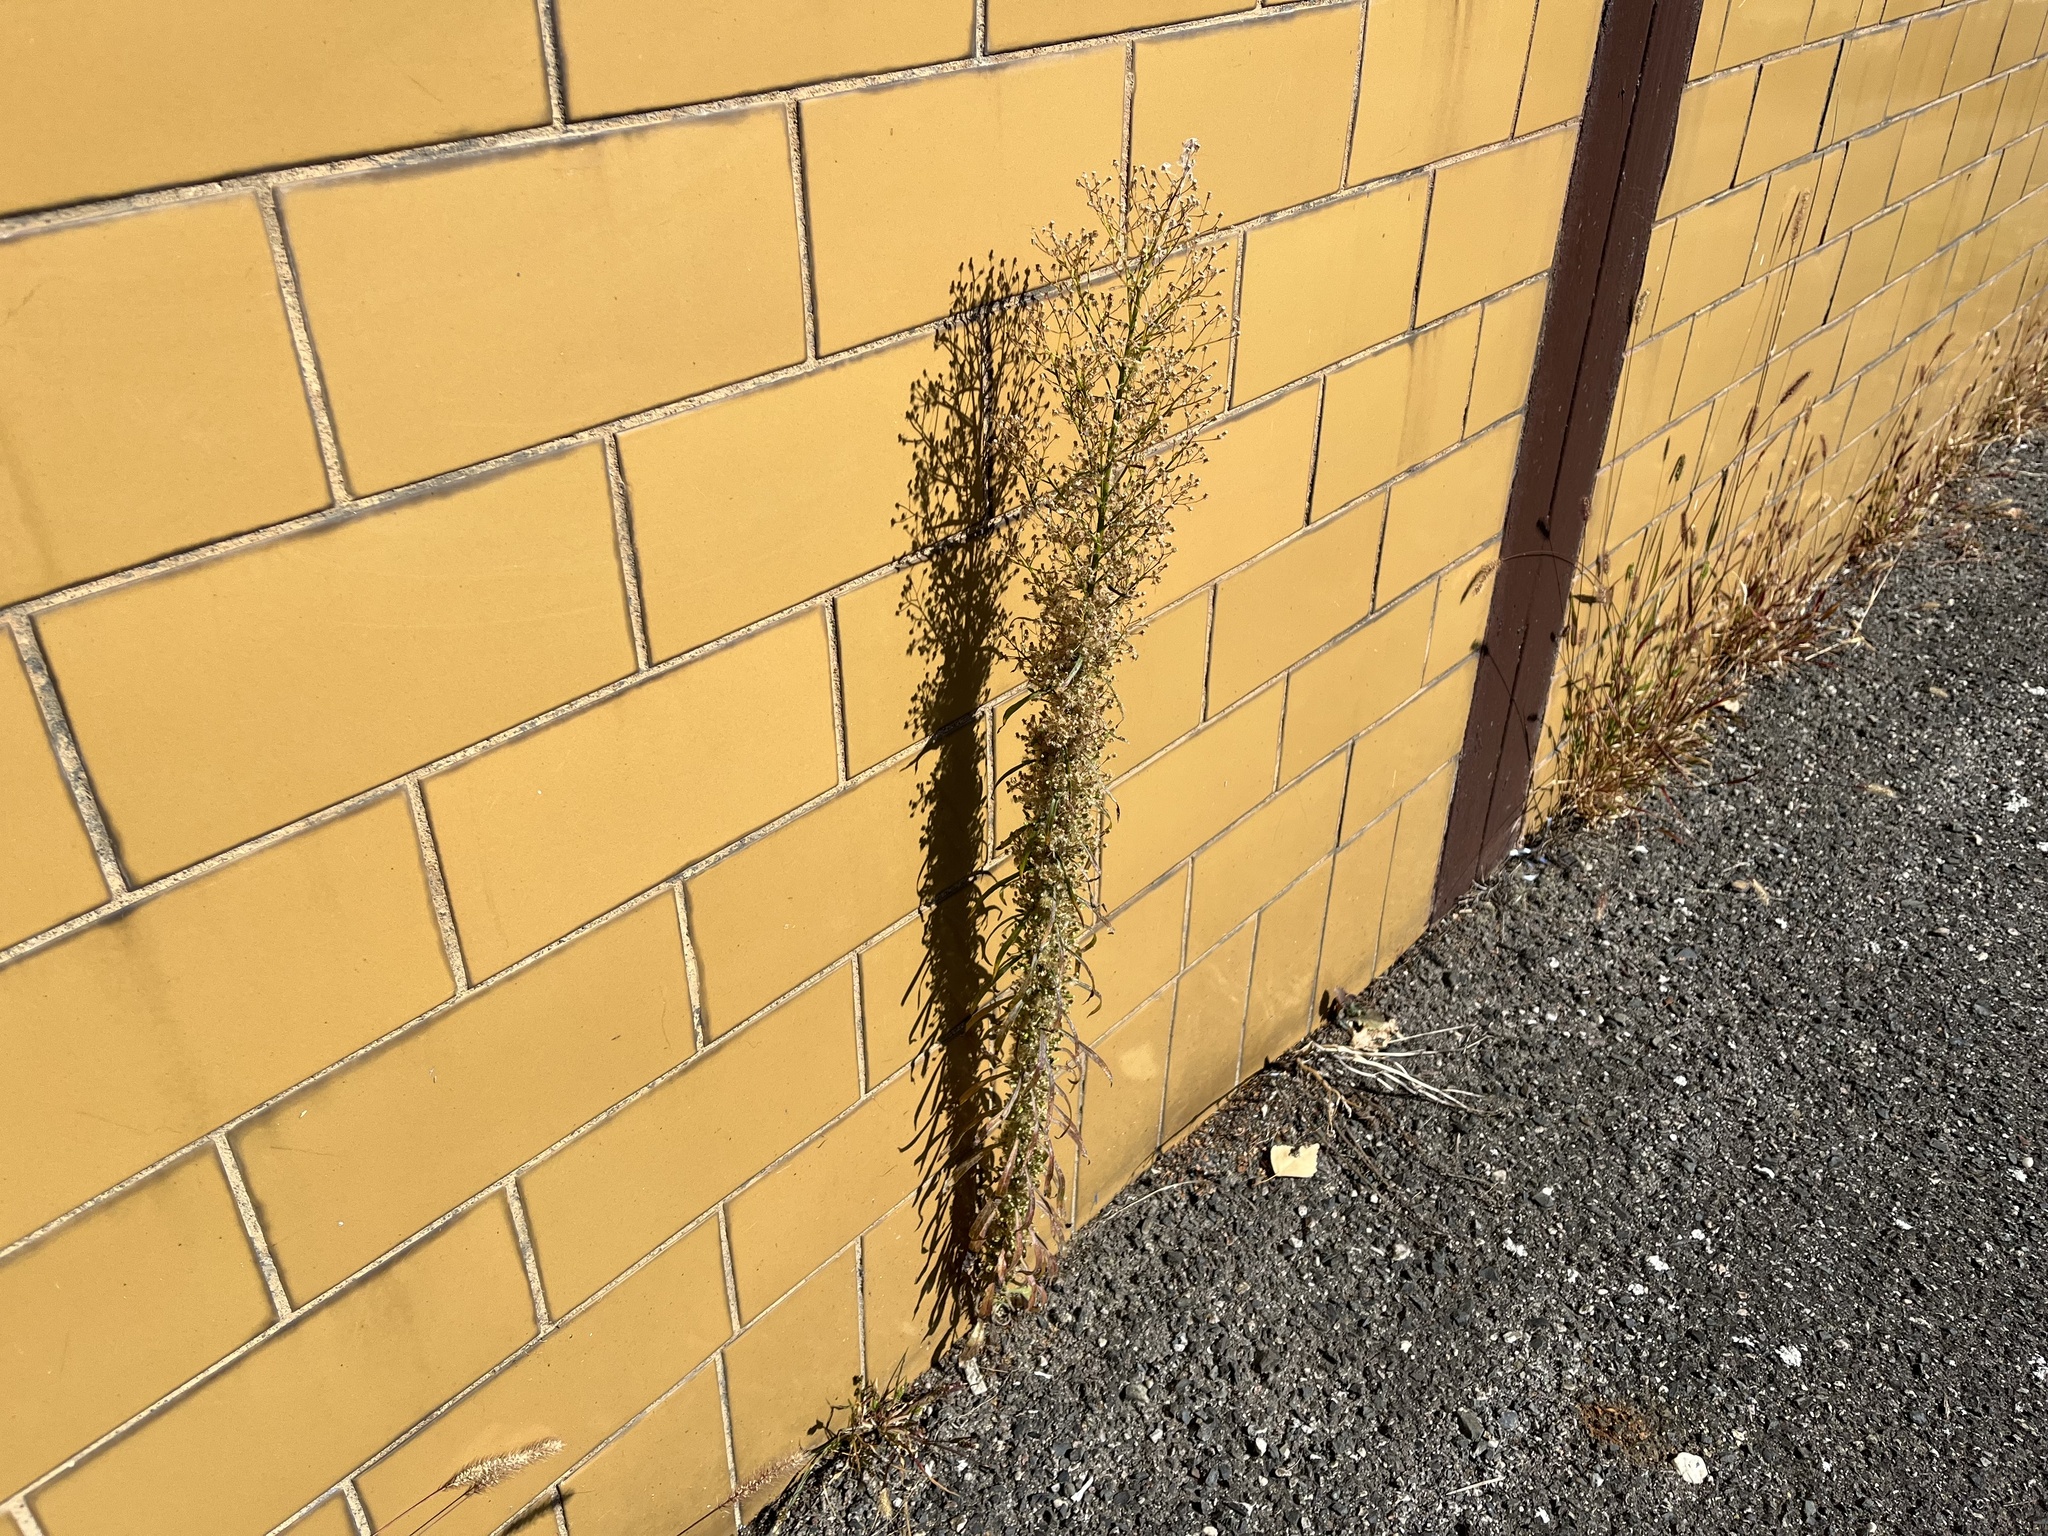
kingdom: Plantae
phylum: Tracheophyta
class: Magnoliopsida
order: Asterales
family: Asteraceae
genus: Erigeron
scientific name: Erigeron canadensis
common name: Canadian fleabane
